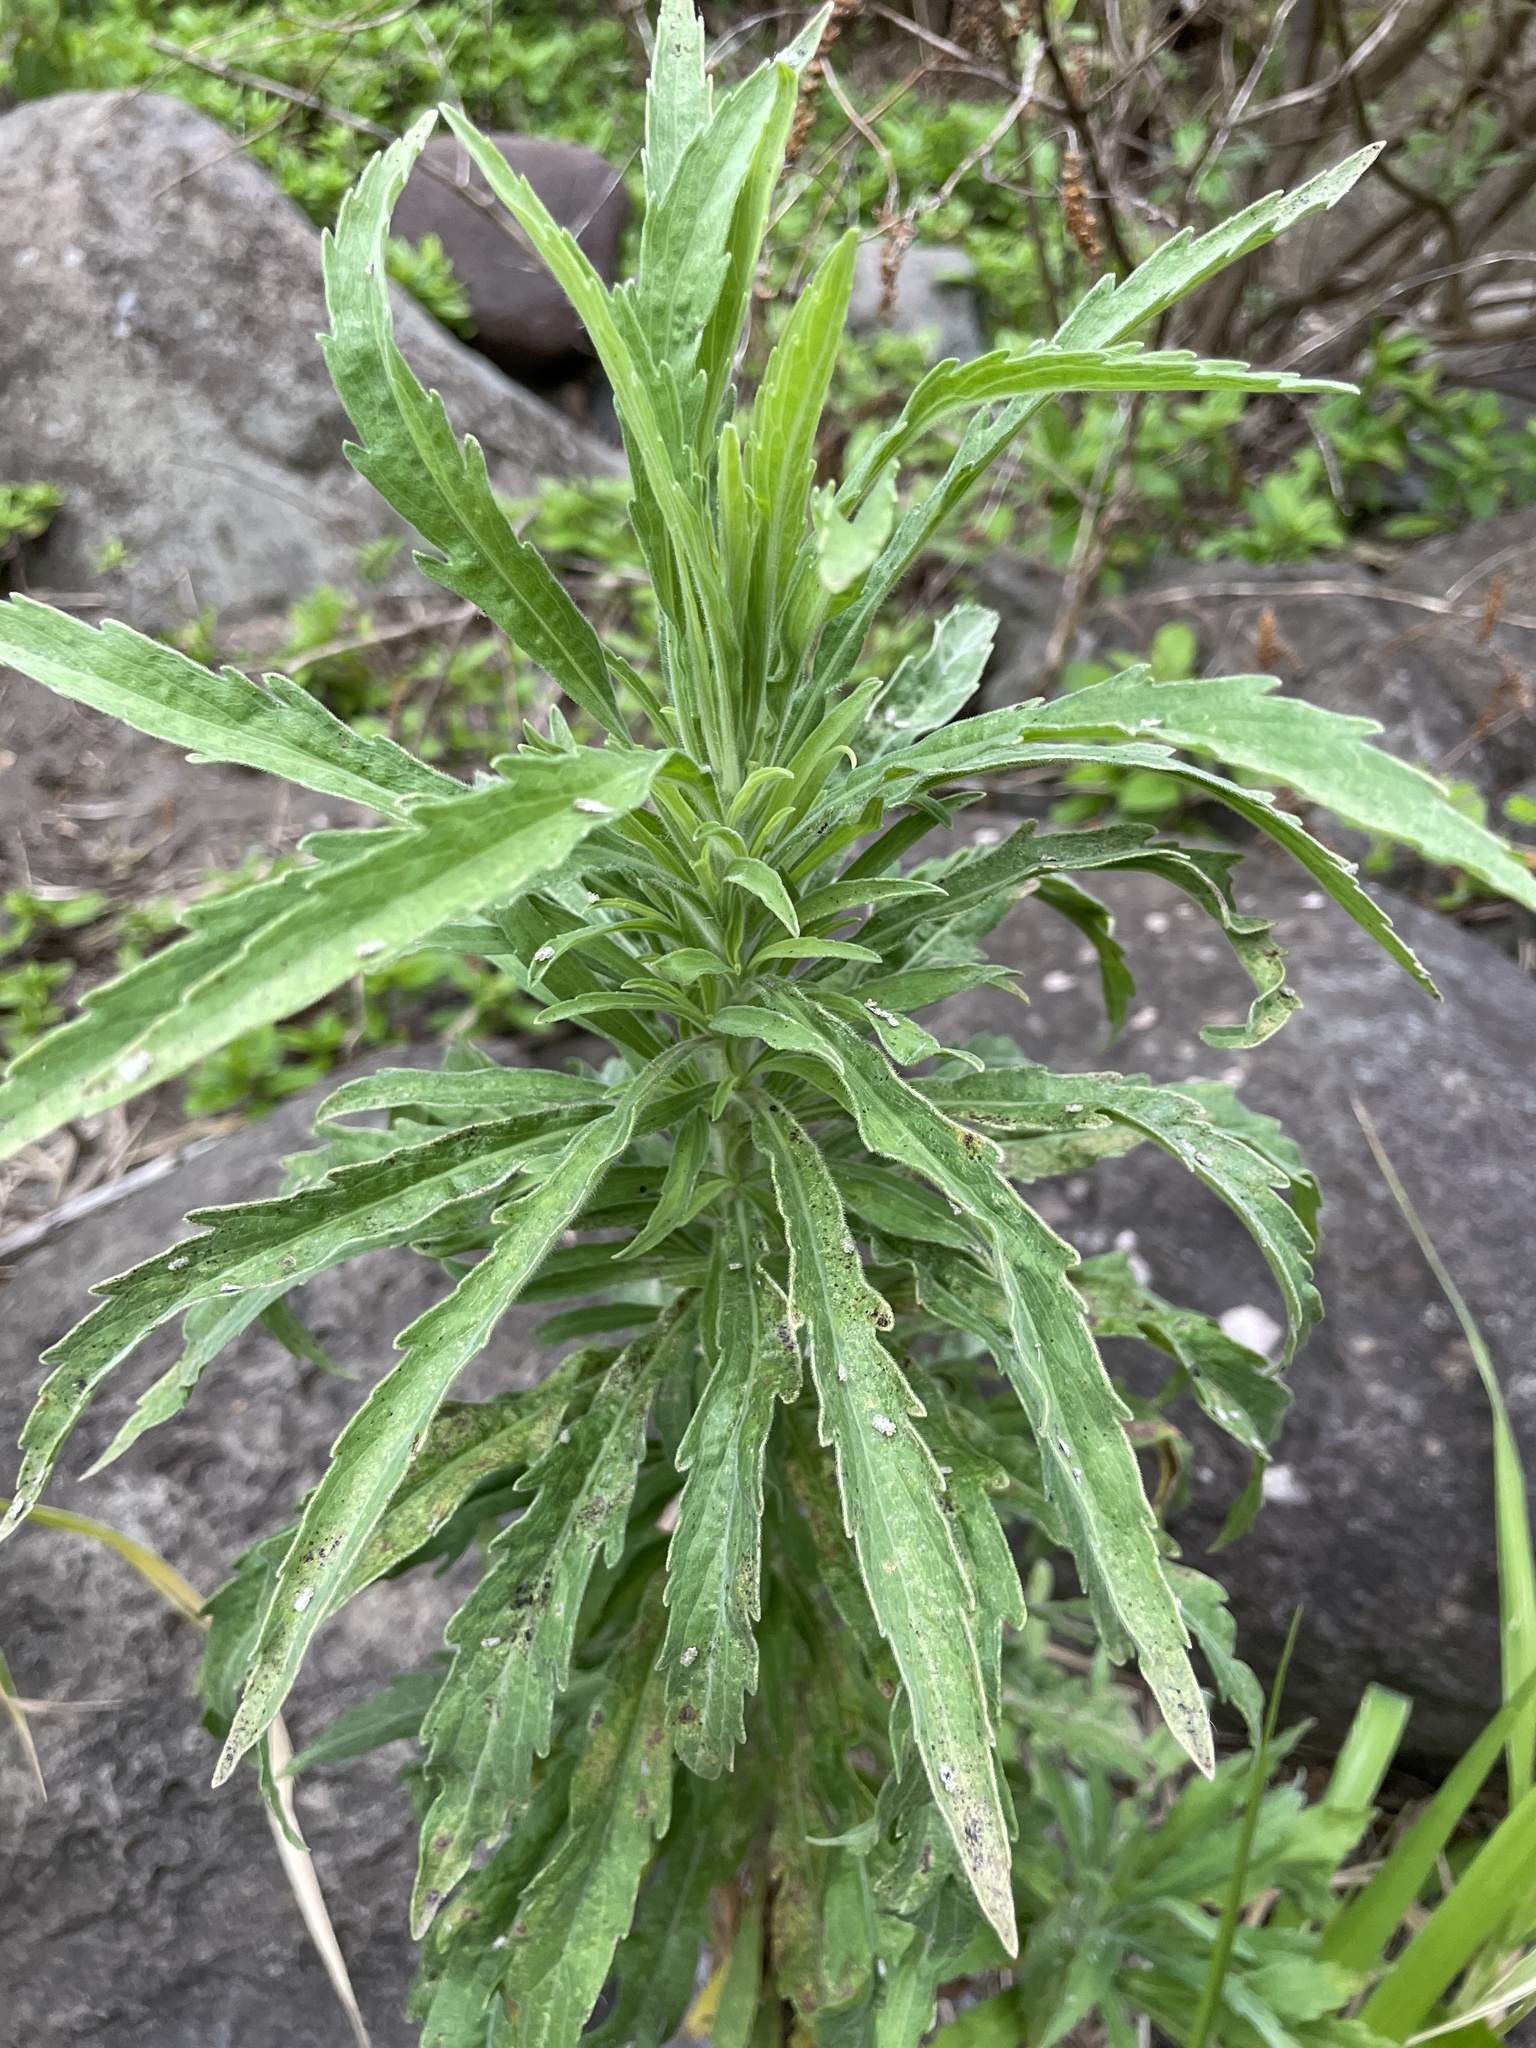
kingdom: Plantae
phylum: Tracheophyta
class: Magnoliopsida
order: Asterales
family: Asteraceae
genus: Erigeron
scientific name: Erigeron sumatrensis
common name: Daisy
